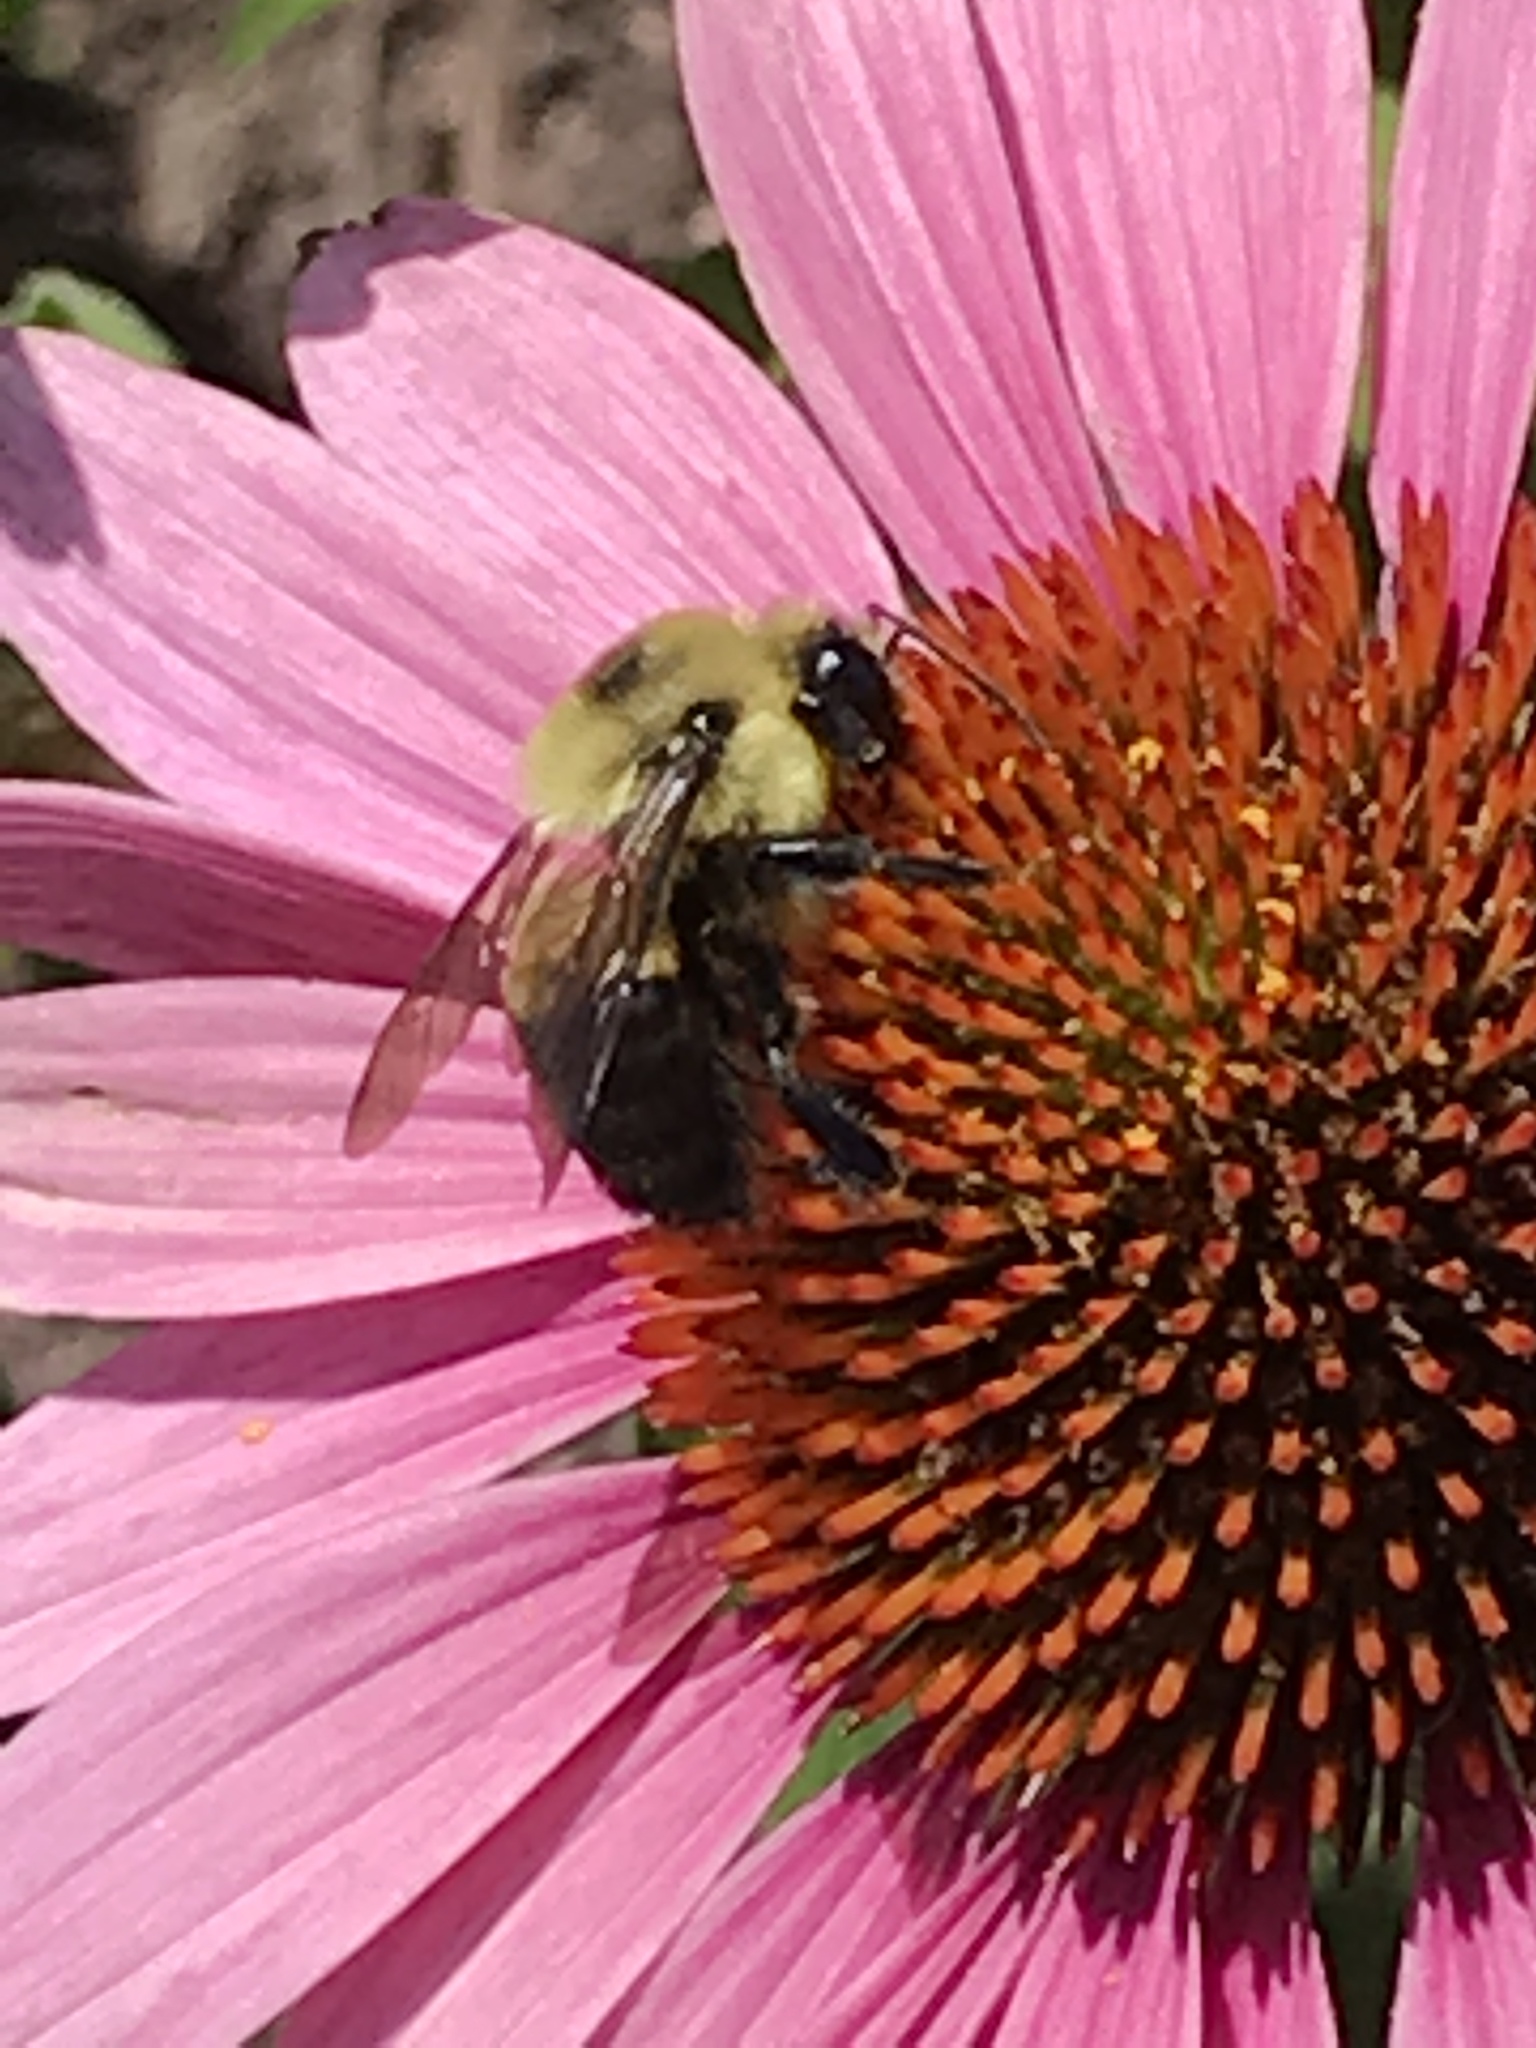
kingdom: Animalia
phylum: Arthropoda
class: Insecta
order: Hymenoptera
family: Apidae
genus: Bombus
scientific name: Bombus griseocollis
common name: Brown-belted bumble bee
